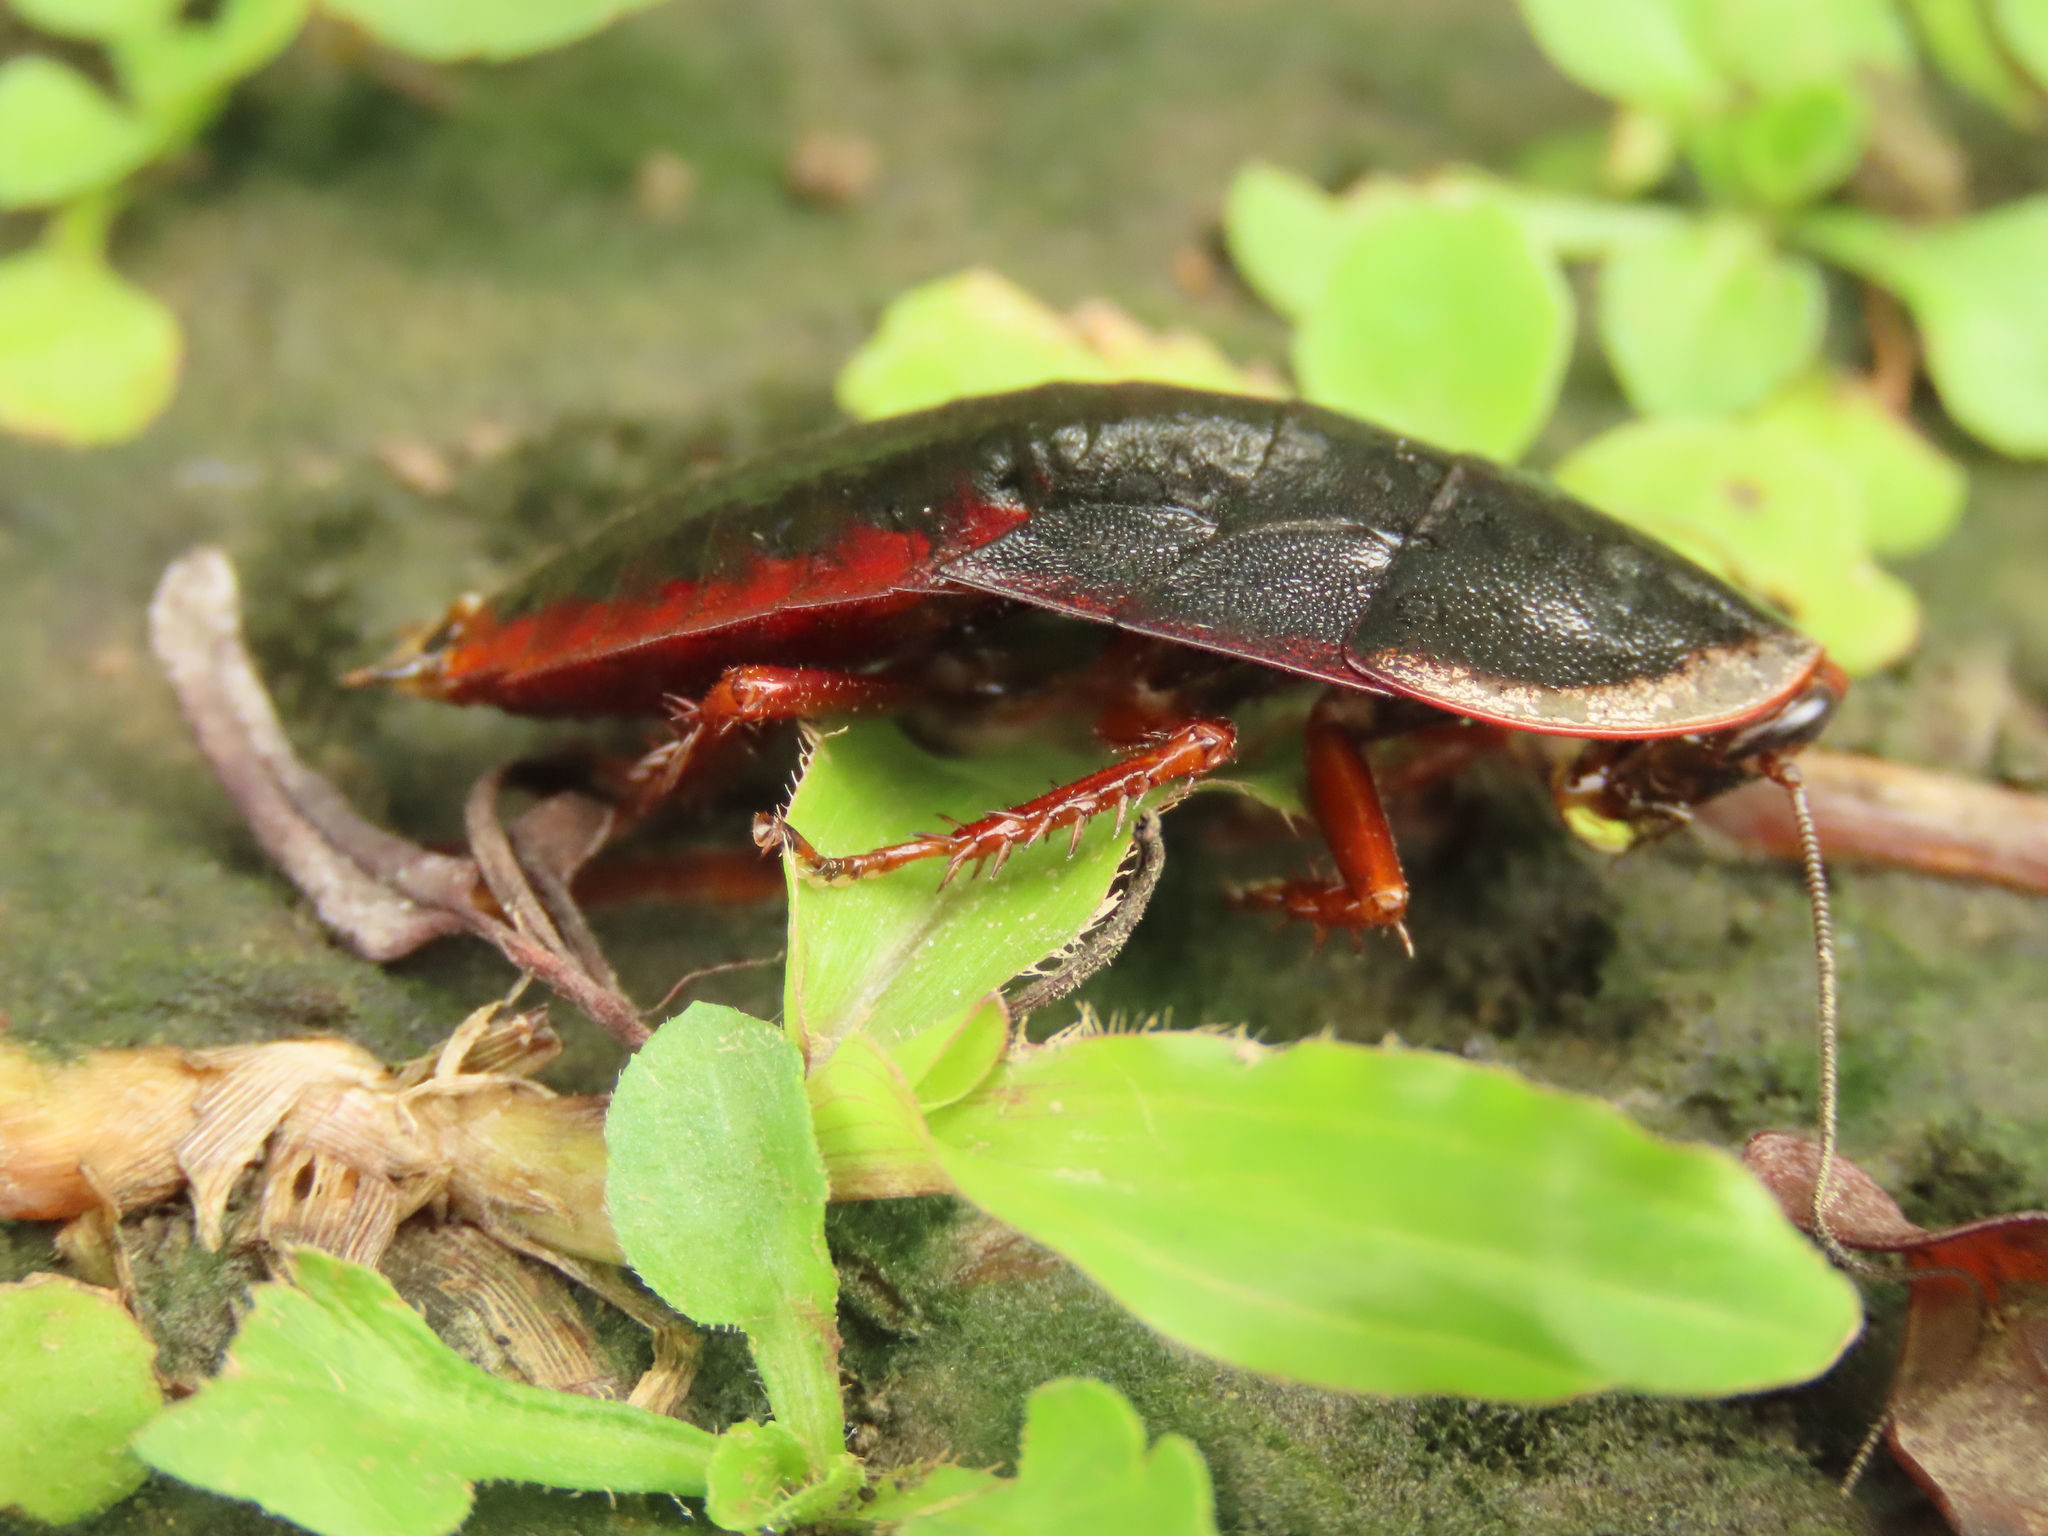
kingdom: Animalia
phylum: Arthropoda
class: Insecta
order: Blattodea
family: Blaberidae
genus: Opisthoplatia
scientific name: Opisthoplatia orientalis
